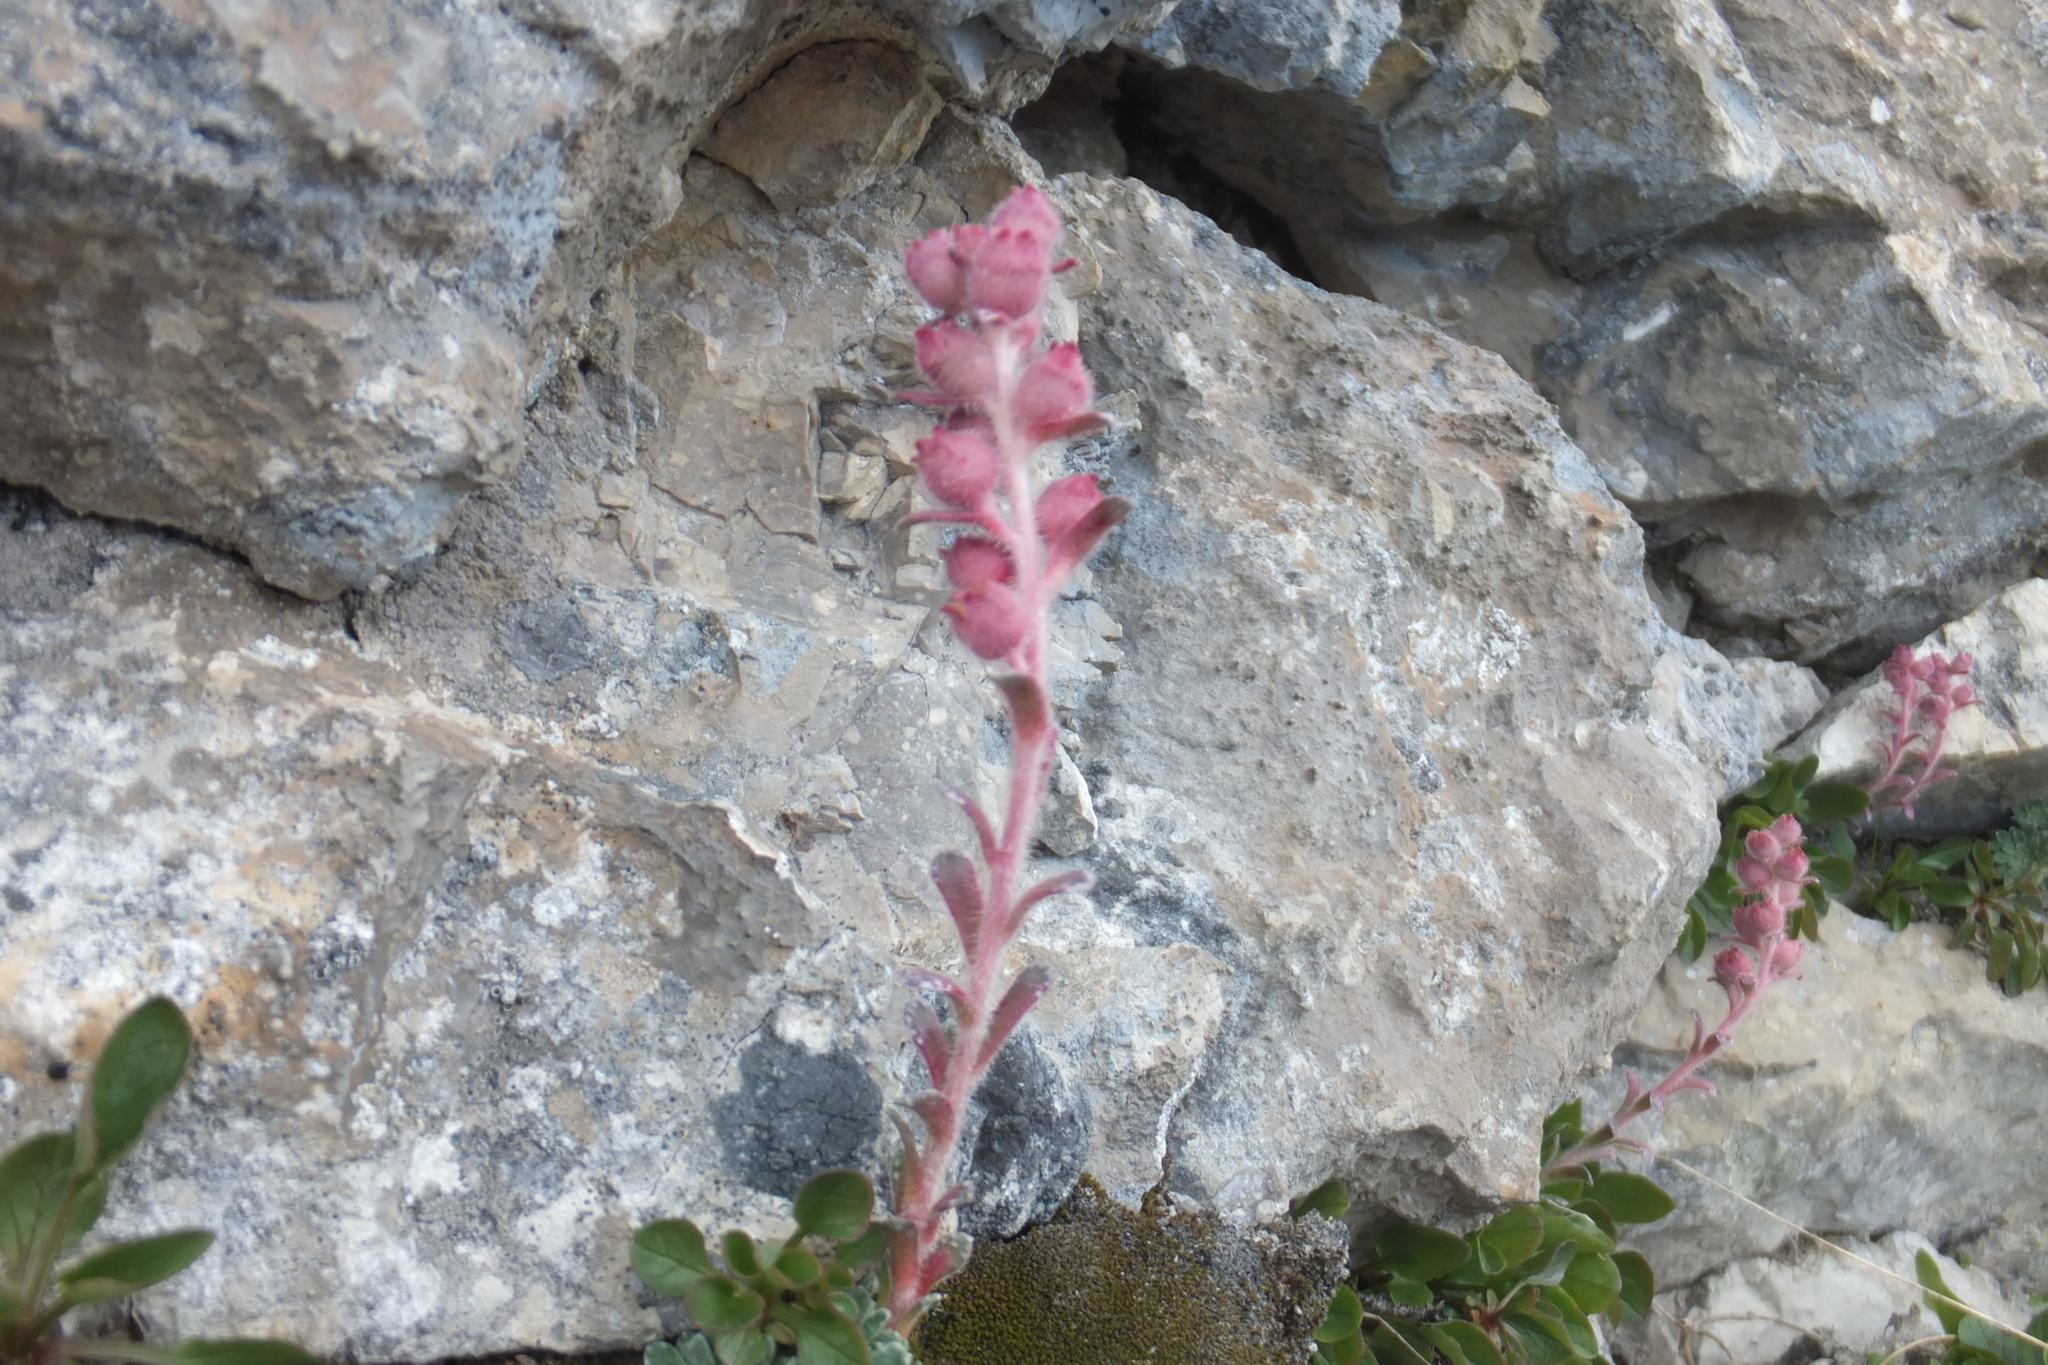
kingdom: Plantae
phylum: Tracheophyta
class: Magnoliopsida
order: Saxifragales
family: Saxifragaceae
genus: Saxifraga
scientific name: Saxifraga porophylla
